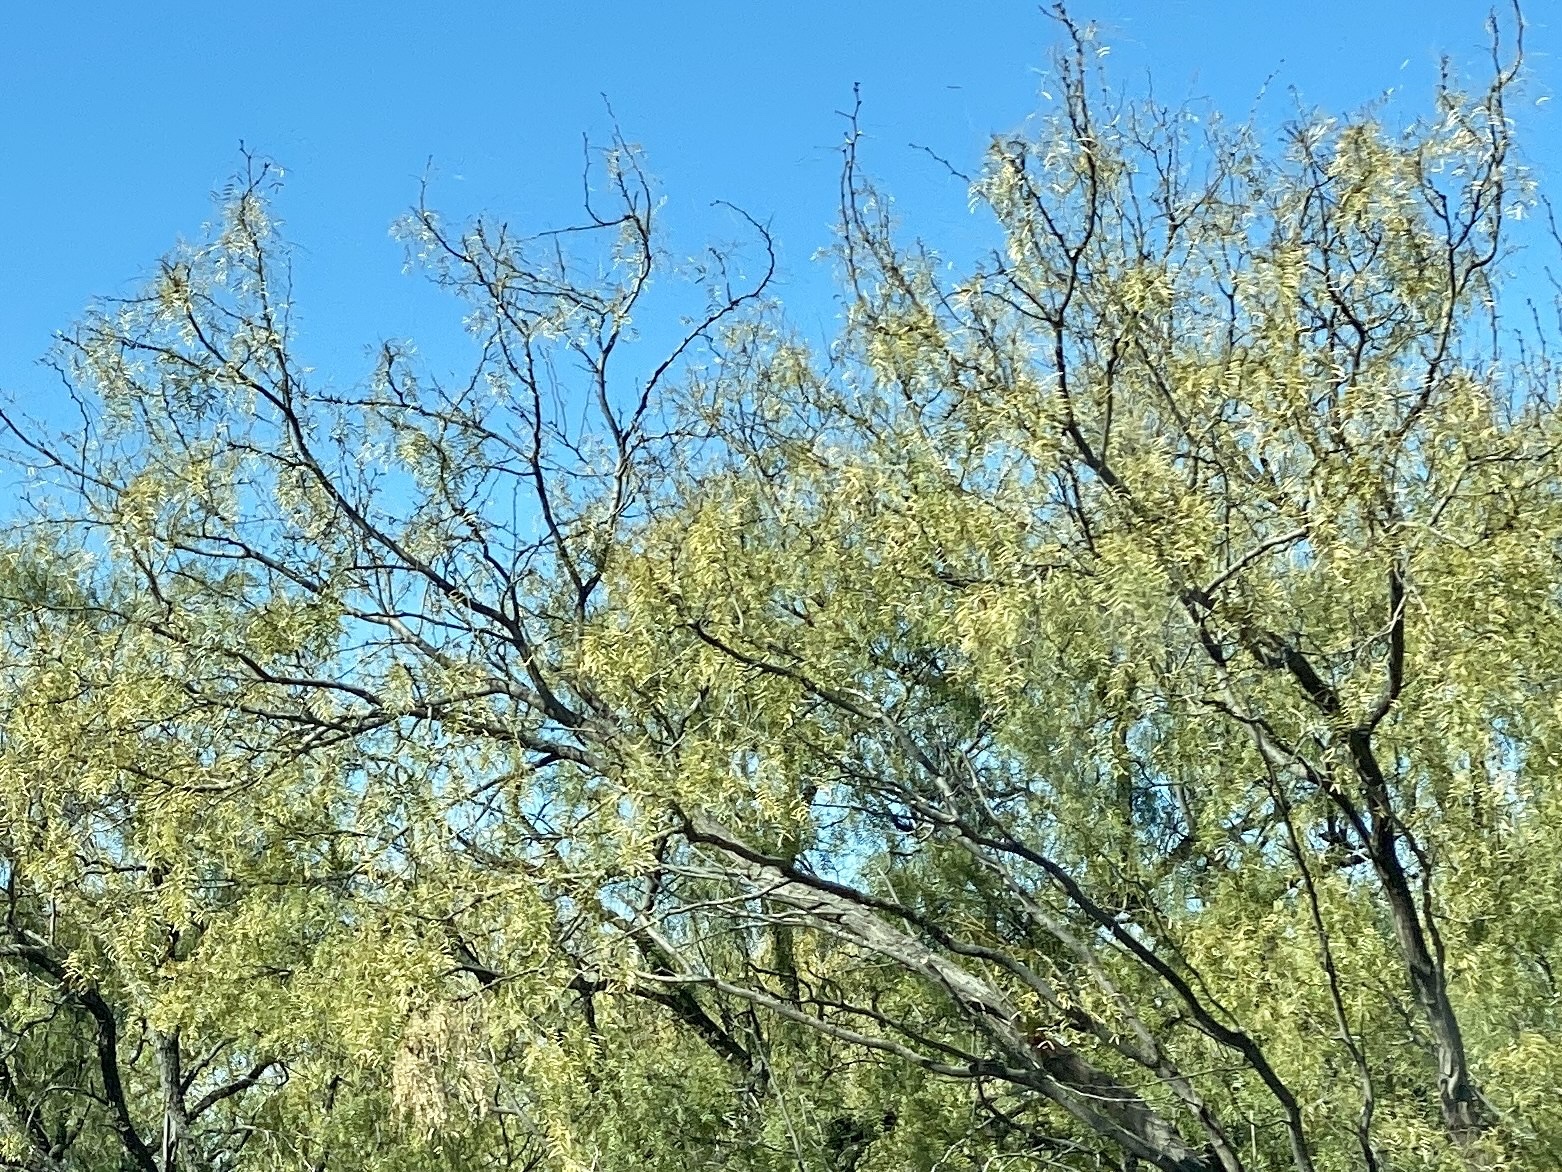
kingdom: Plantae
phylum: Tracheophyta
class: Magnoliopsida
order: Fabales
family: Fabaceae
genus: Prosopis
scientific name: Prosopis glandulosa
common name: Honey mesquite
